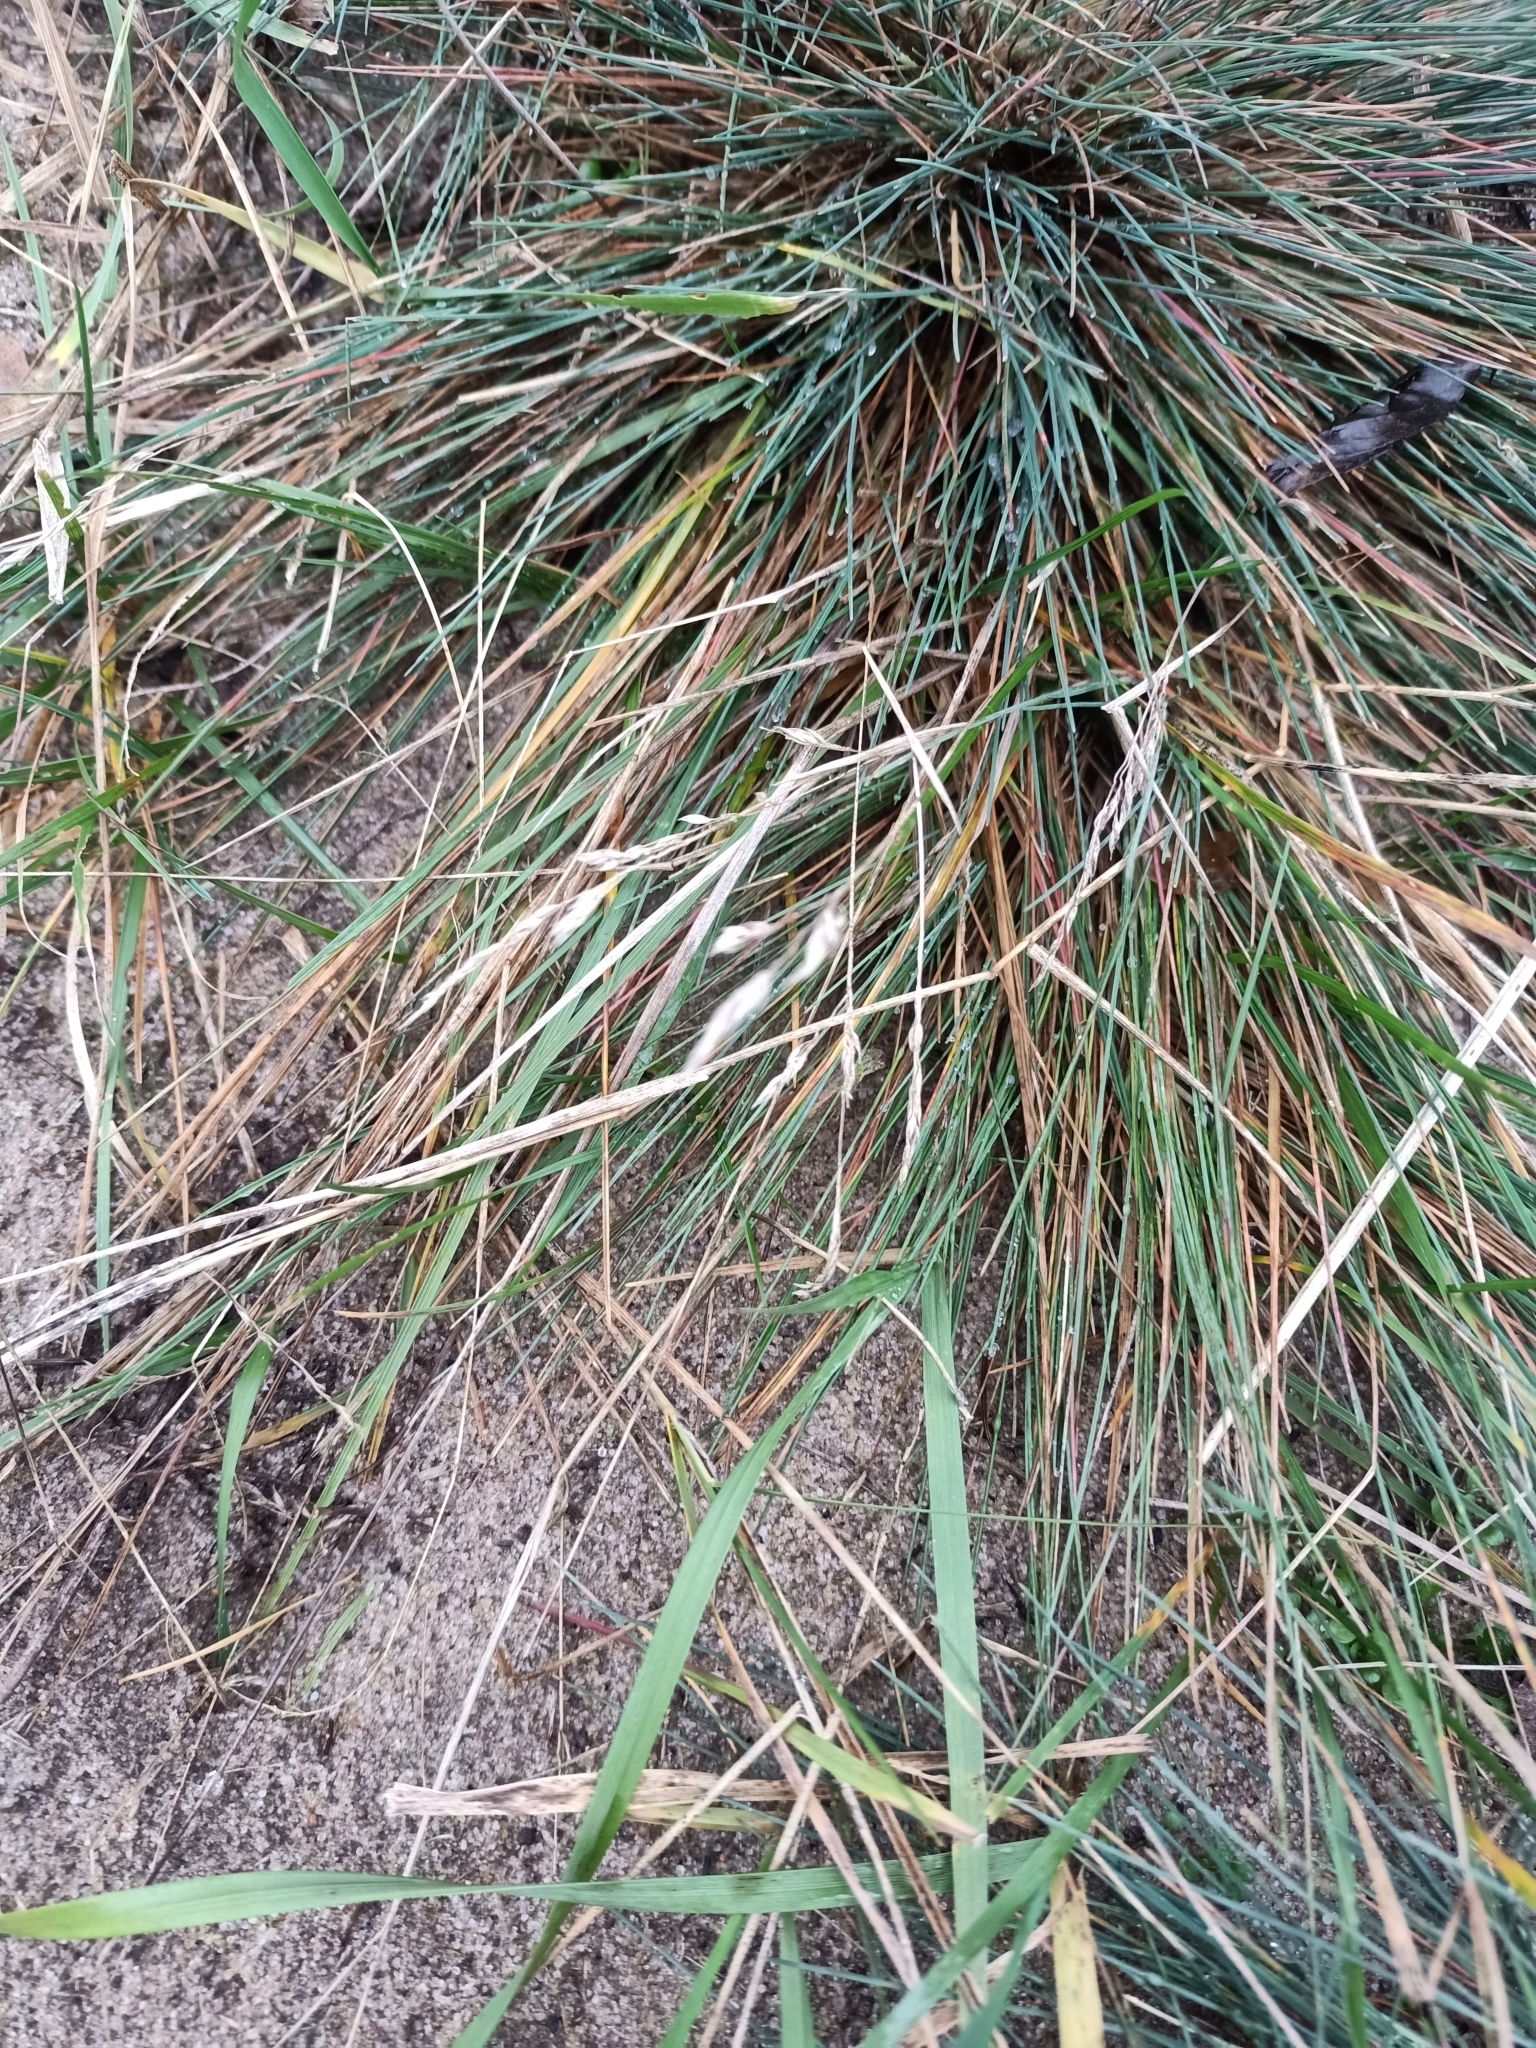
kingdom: Plantae
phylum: Tracheophyta
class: Liliopsida
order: Poales
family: Poaceae
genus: Corynephorus
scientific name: Corynephorus canescens
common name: Grey hair-grass
